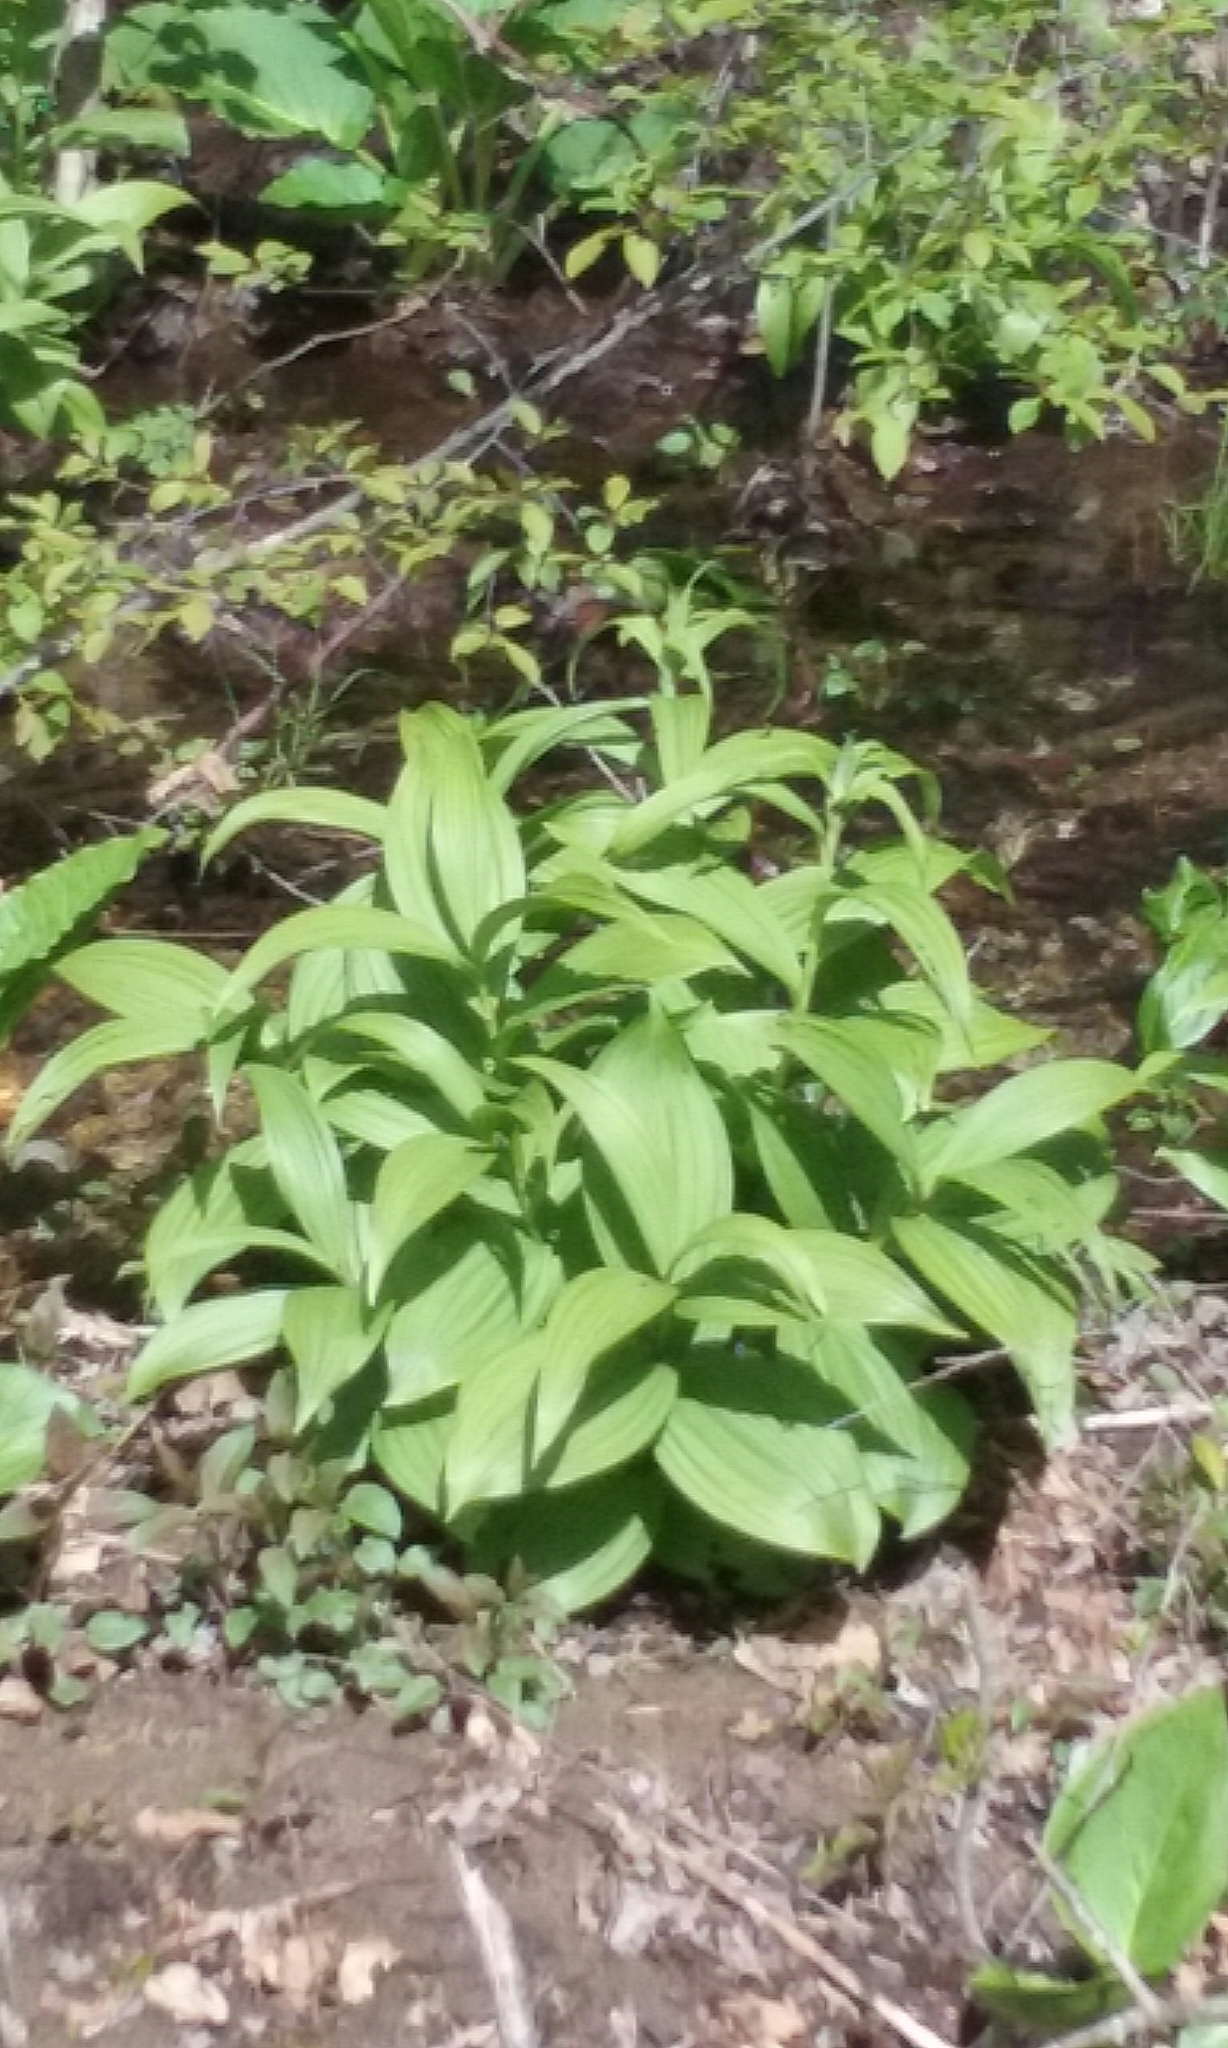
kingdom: Plantae
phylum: Tracheophyta
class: Liliopsida
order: Liliales
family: Melanthiaceae
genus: Veratrum
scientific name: Veratrum viride
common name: American false hellebore
